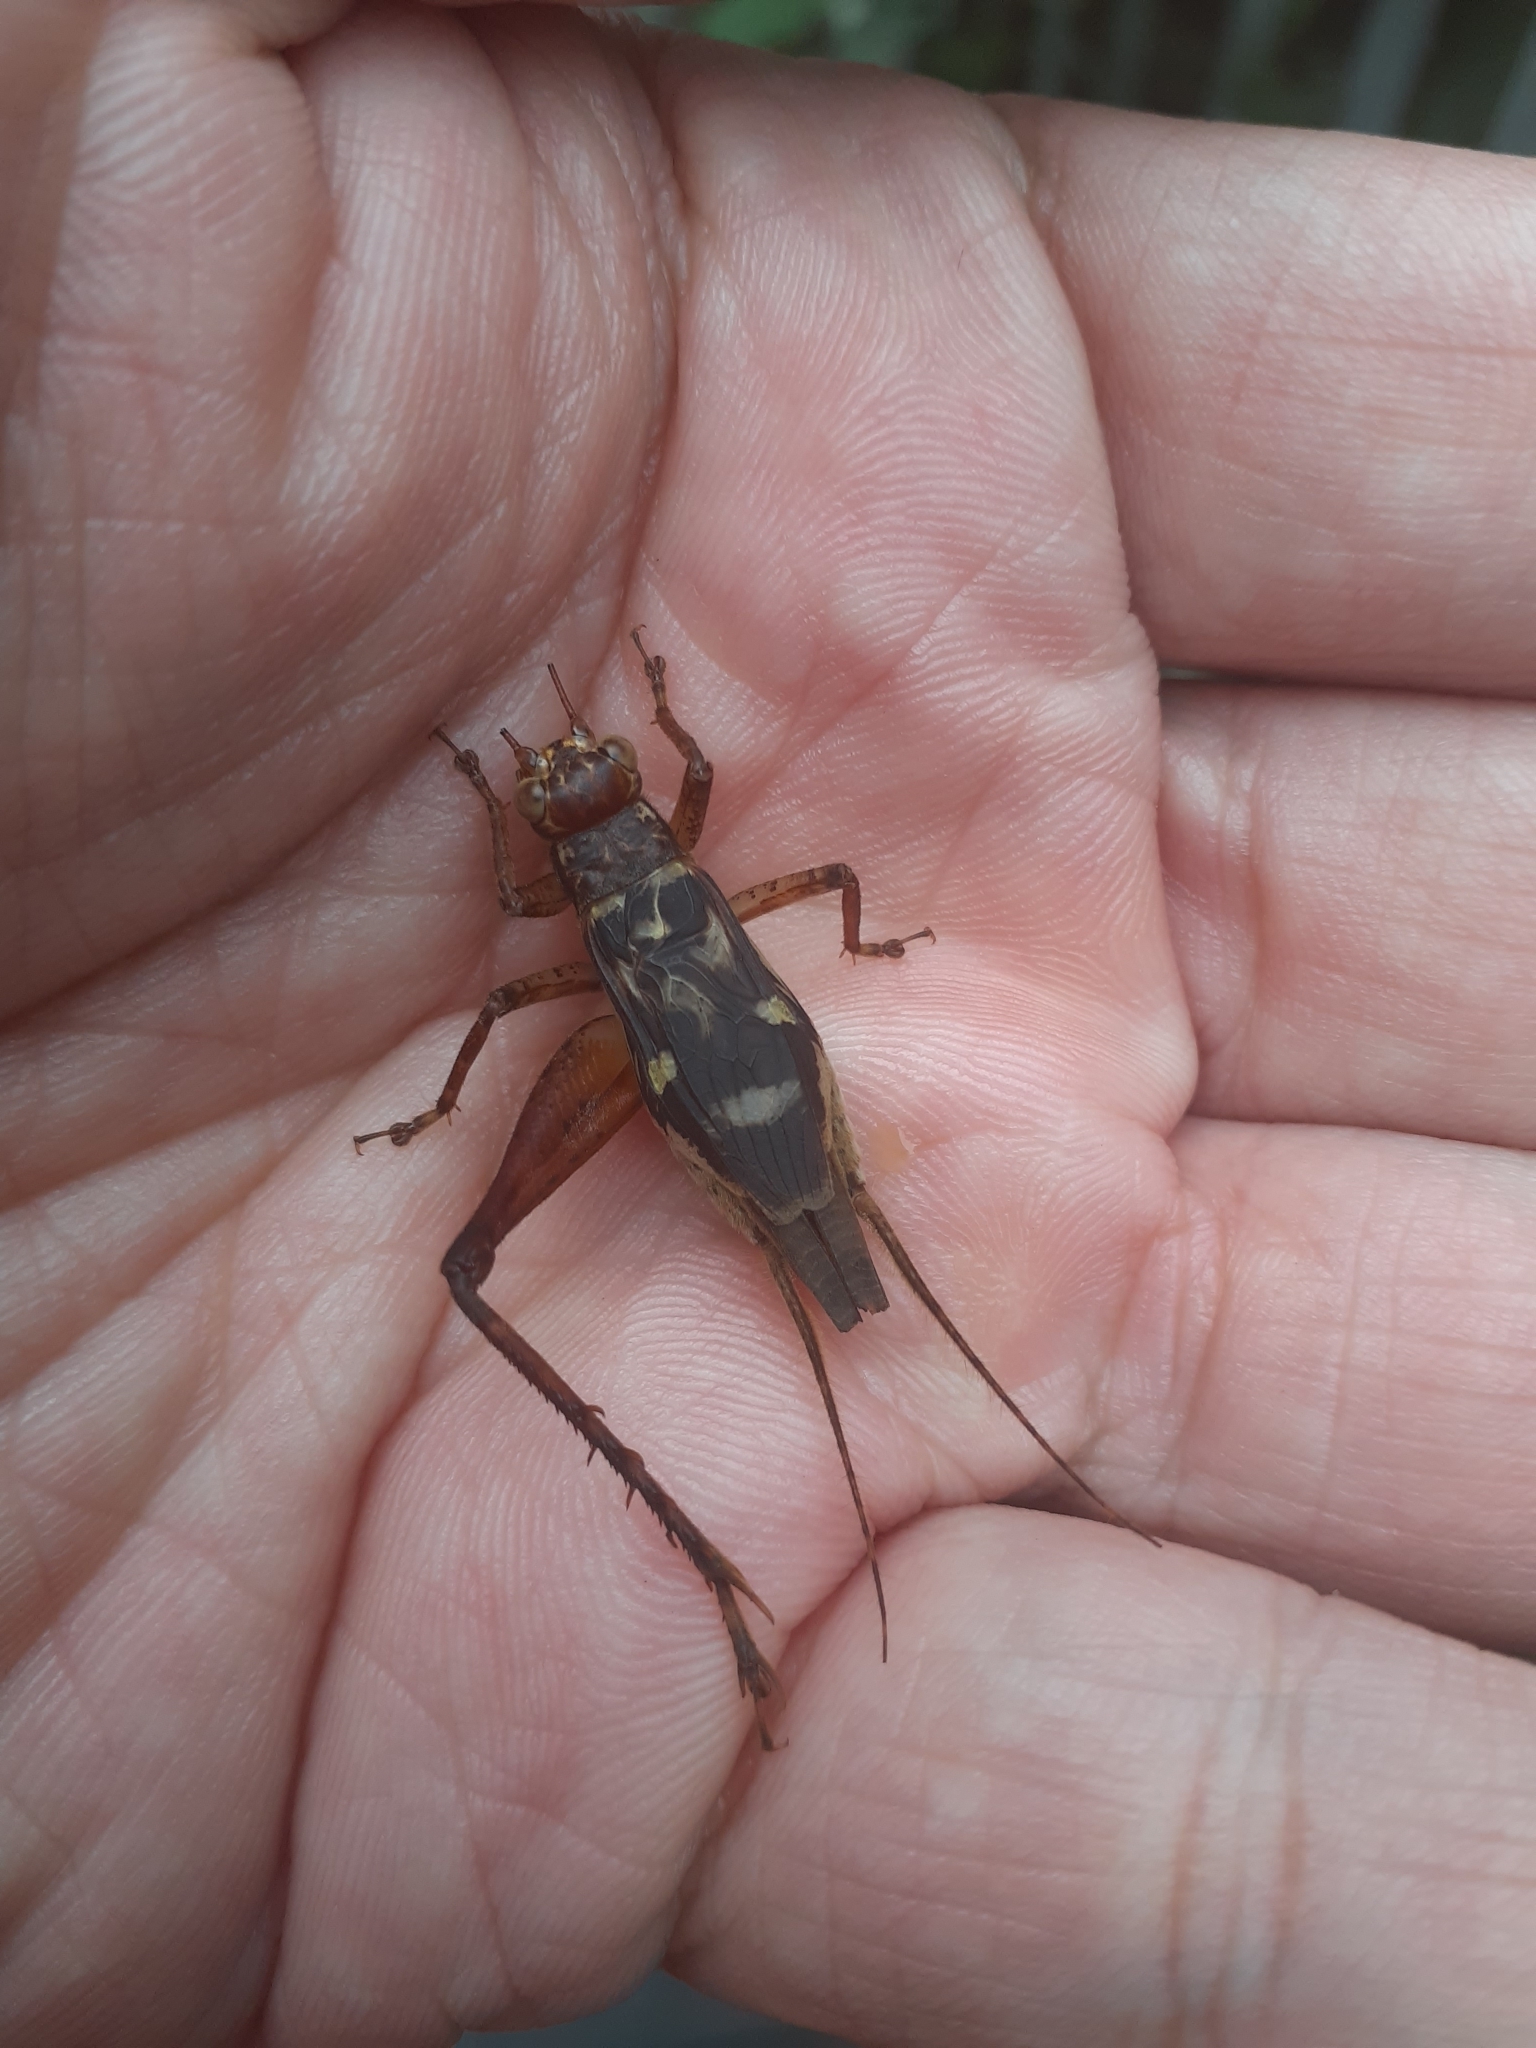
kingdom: Animalia
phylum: Arthropoda
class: Insecta
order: Orthoptera
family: Gryllidae
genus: Cardiodactylus
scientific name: Cardiodactylus guttulus
